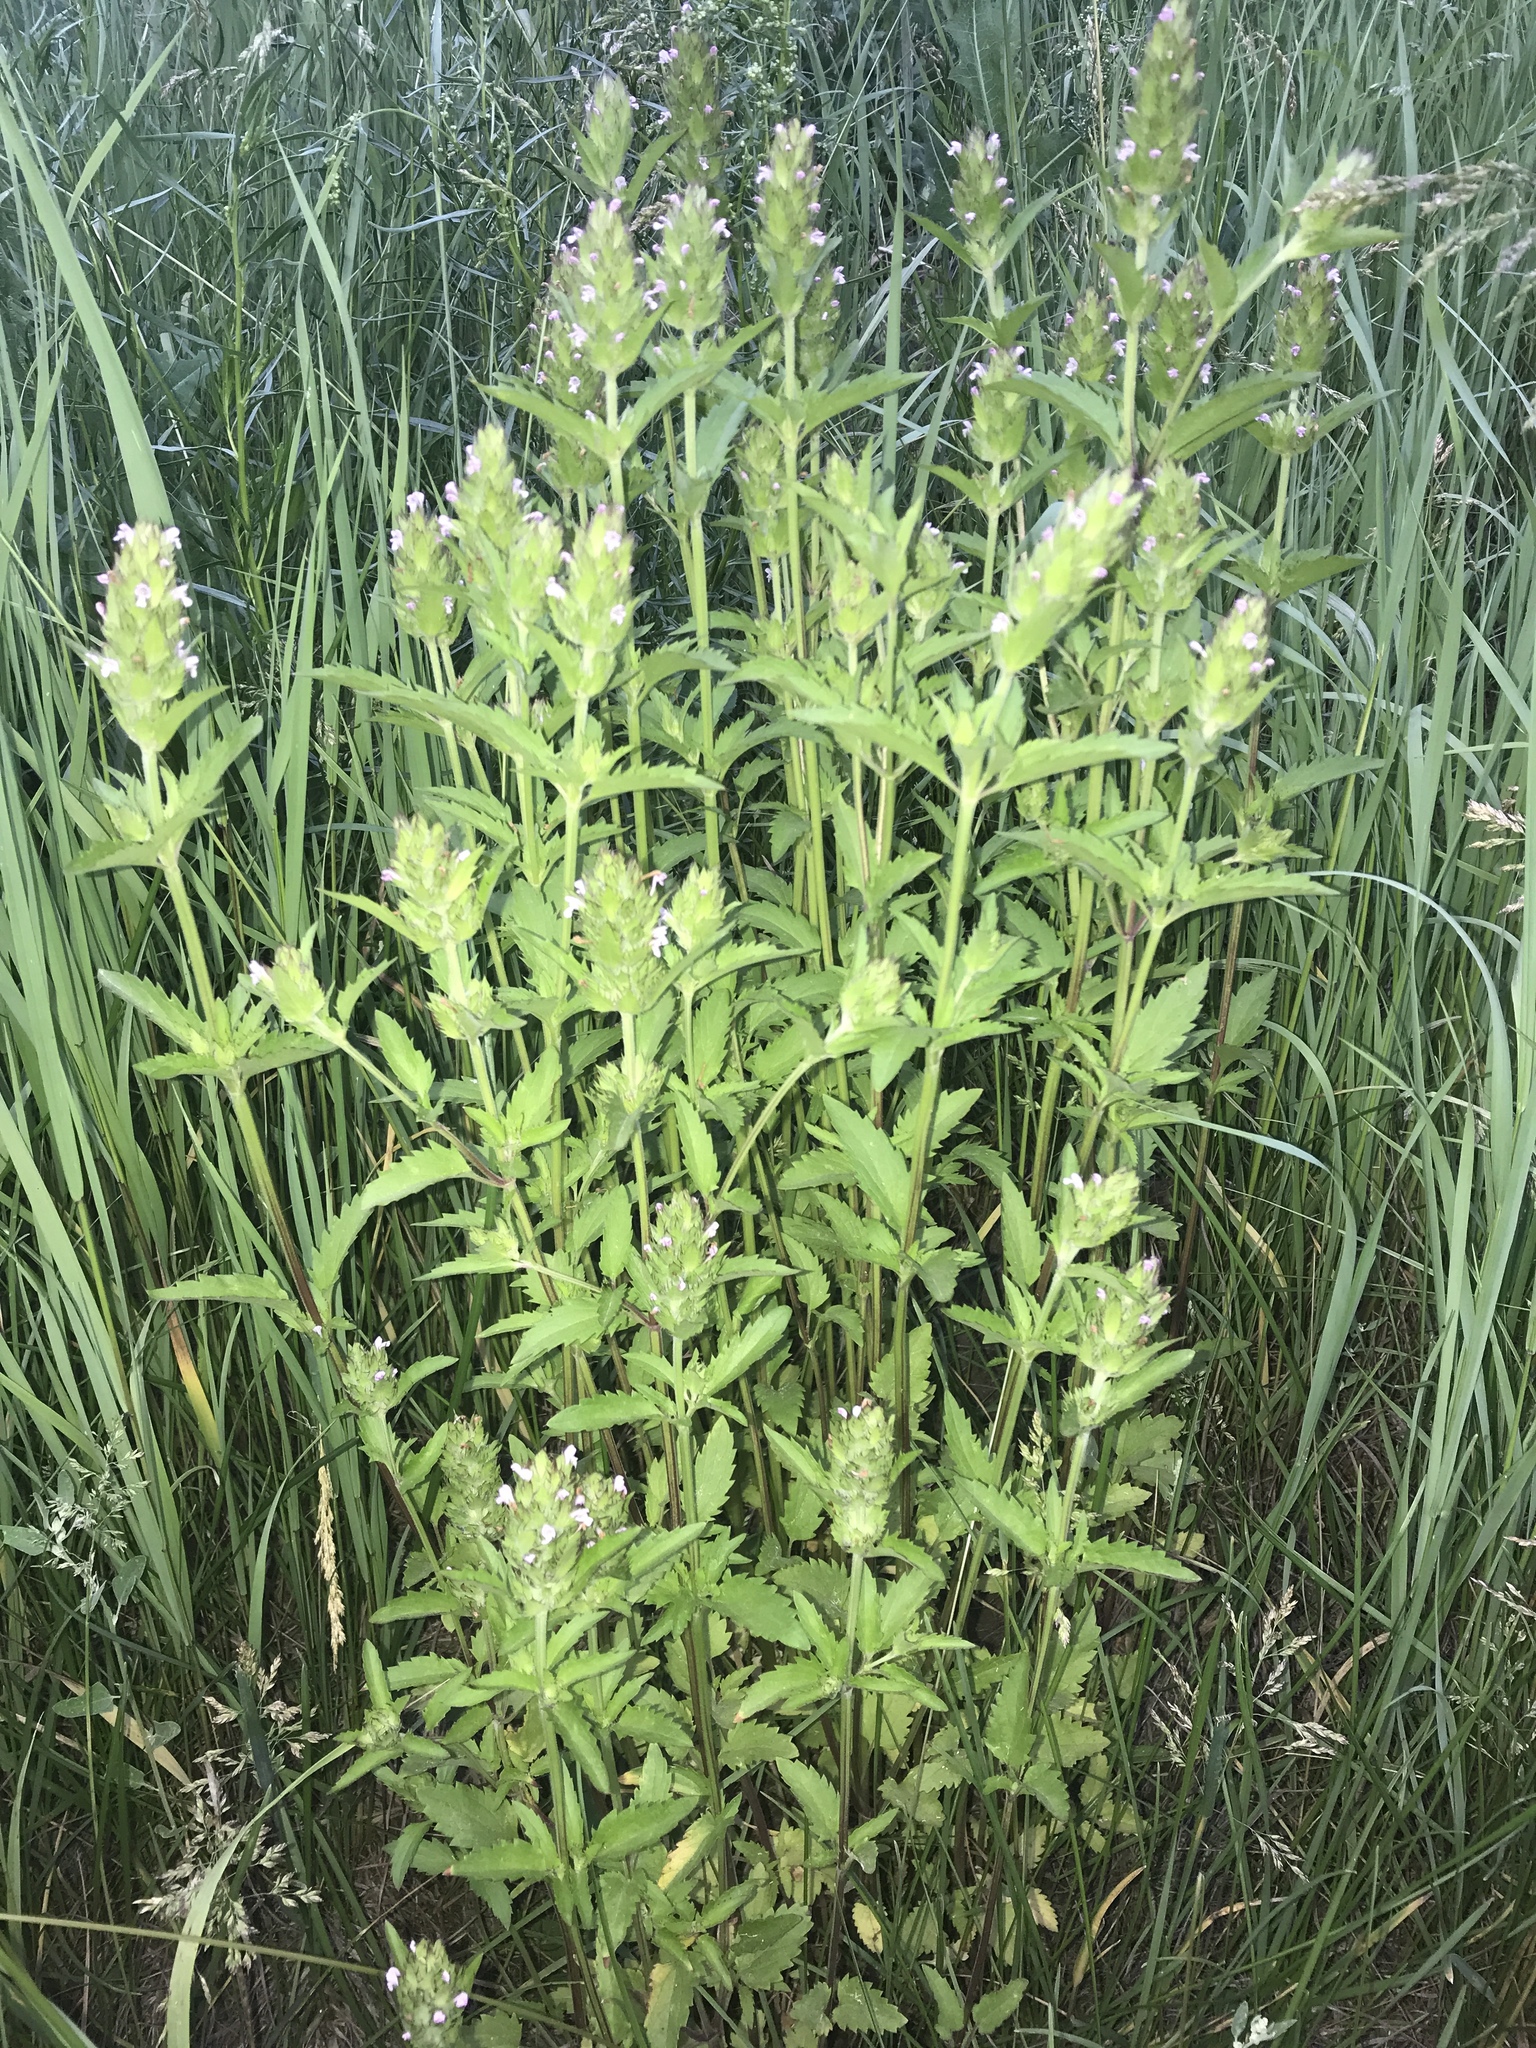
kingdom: Plantae
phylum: Tracheophyta
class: Magnoliopsida
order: Lamiales
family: Lamiaceae
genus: Dracocephalum
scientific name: Dracocephalum parviflorum
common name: American dragonhead
